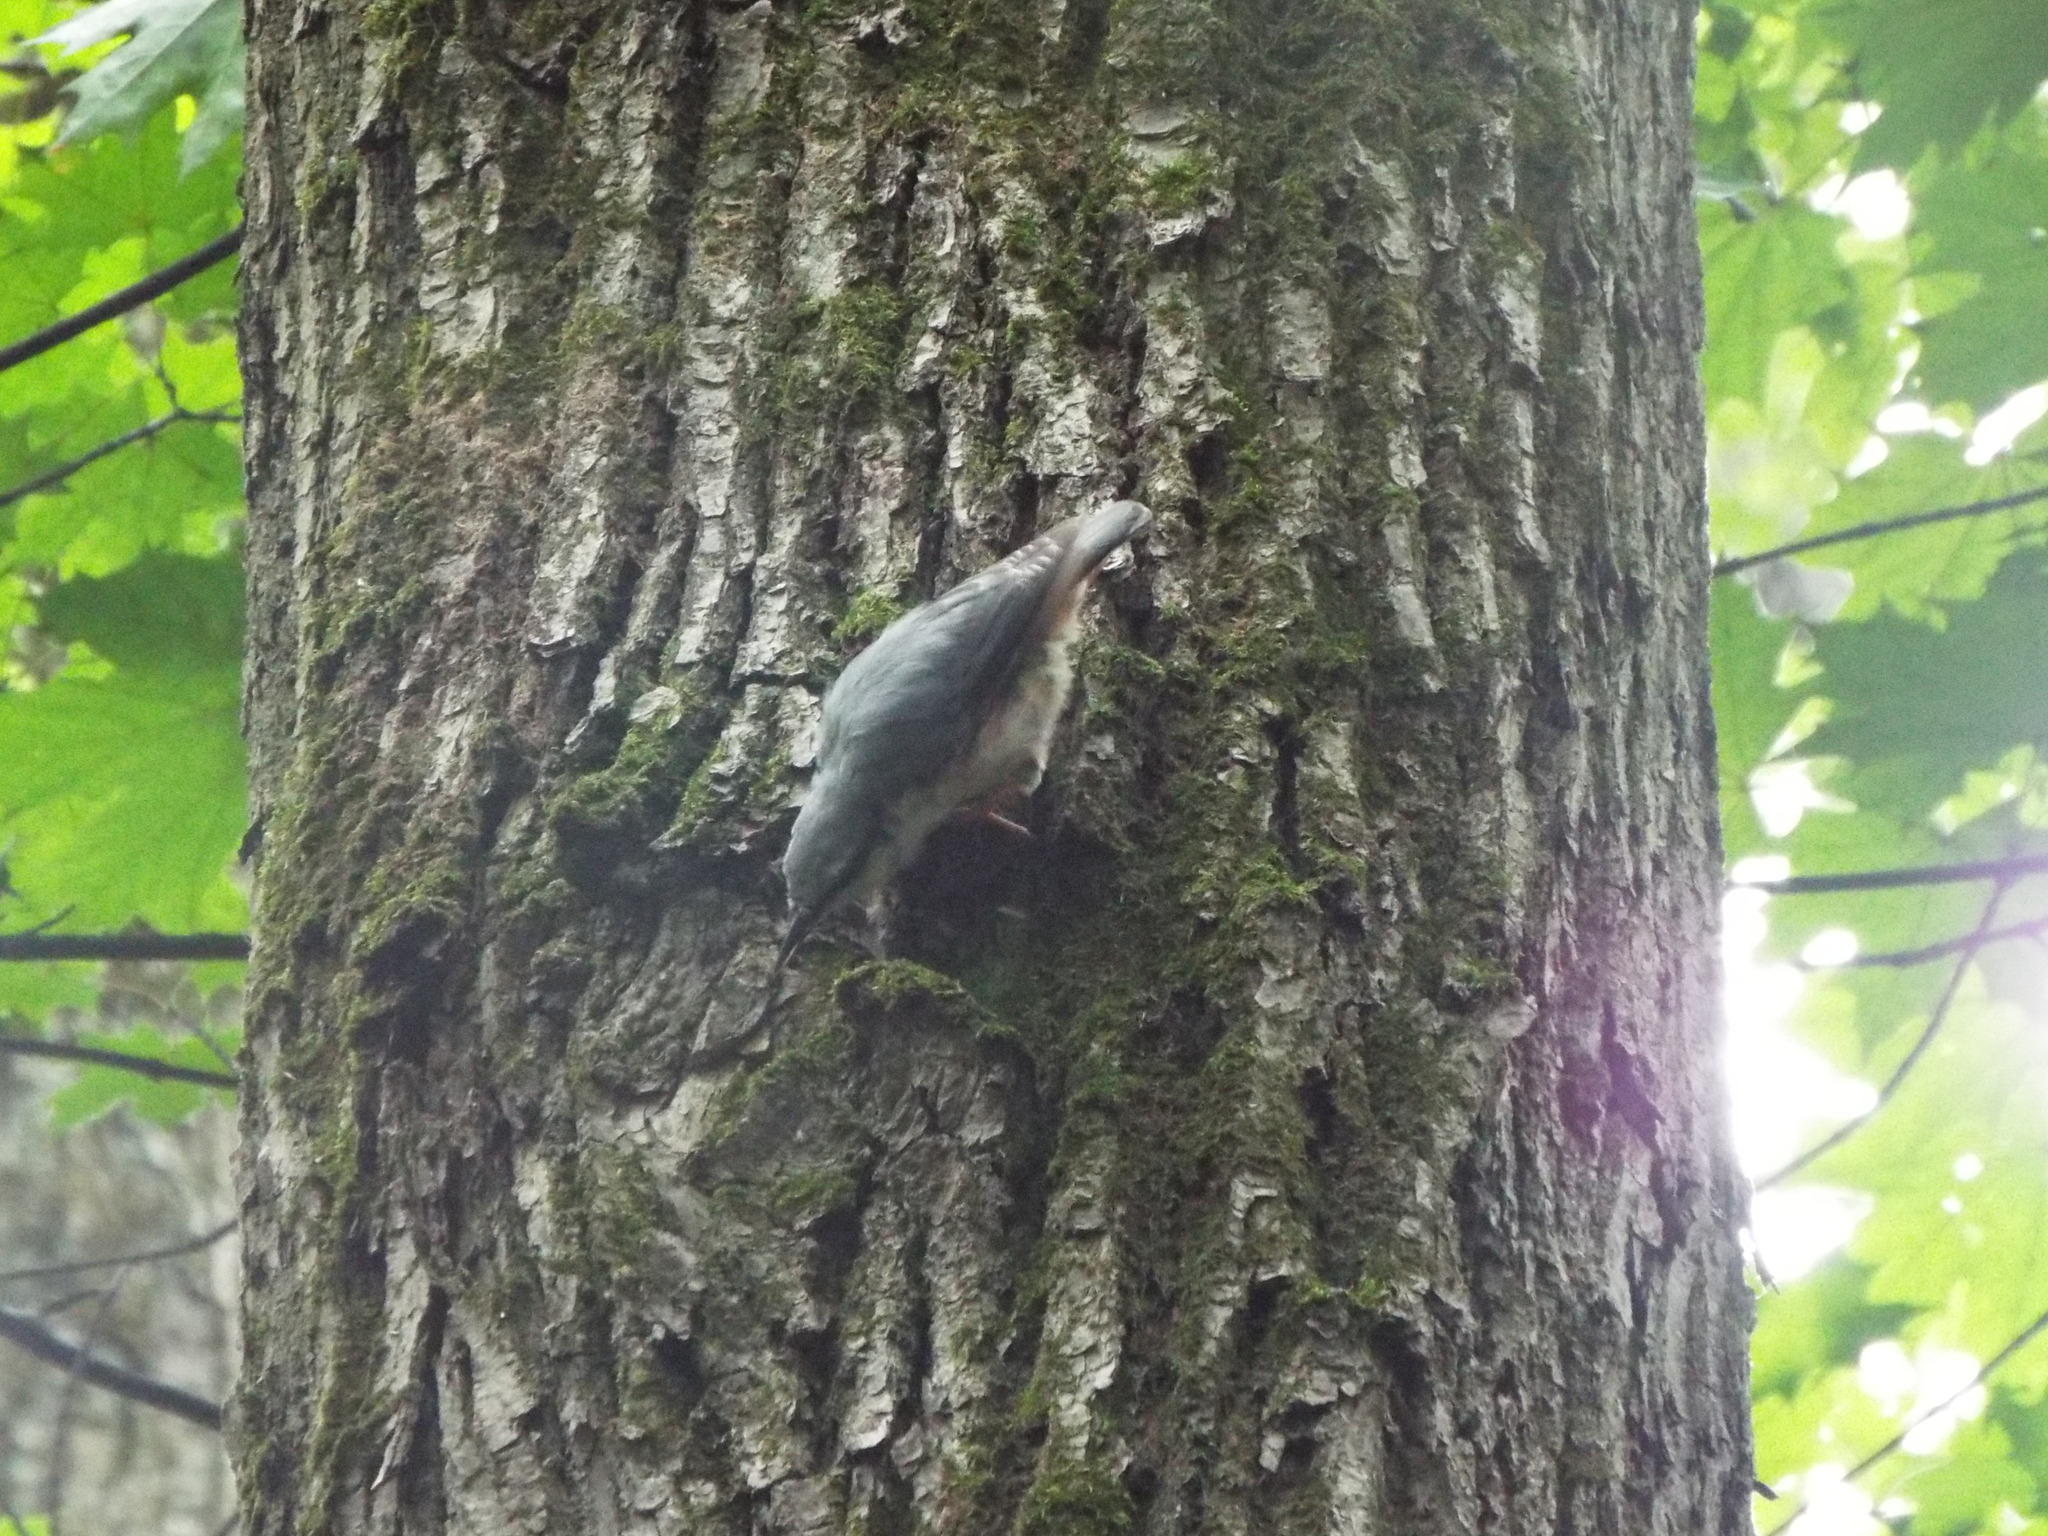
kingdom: Animalia
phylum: Chordata
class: Aves
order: Passeriformes
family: Sittidae
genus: Sitta
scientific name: Sitta europaea
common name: Eurasian nuthatch
